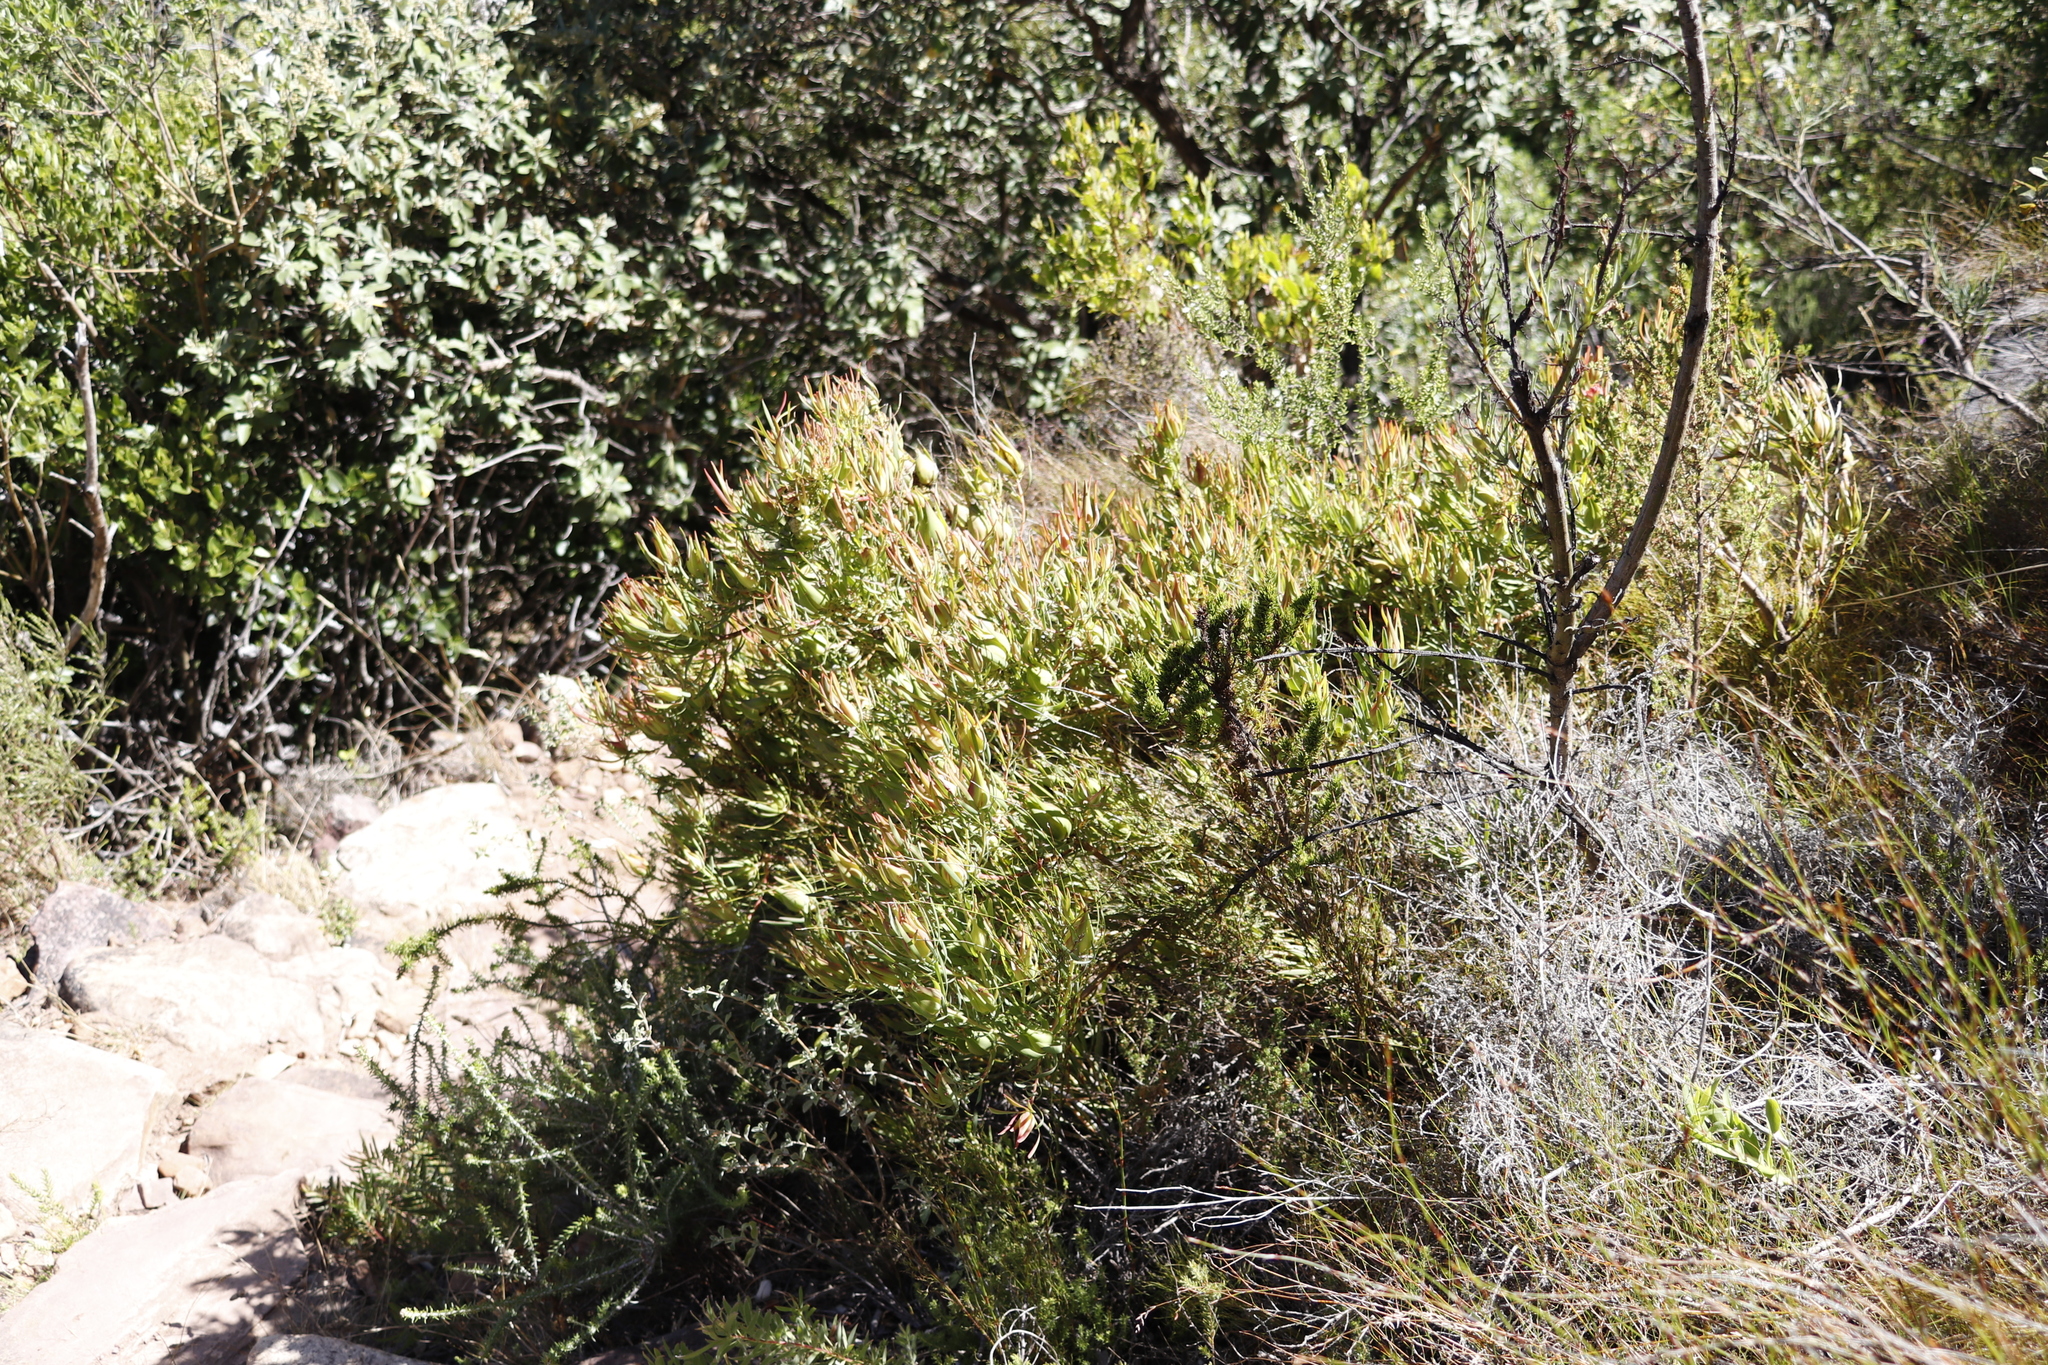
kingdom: Plantae
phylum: Tracheophyta
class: Magnoliopsida
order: Proteales
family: Proteaceae
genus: Leucadendron
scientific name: Leucadendron salignum
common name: Common sunshine conebush
